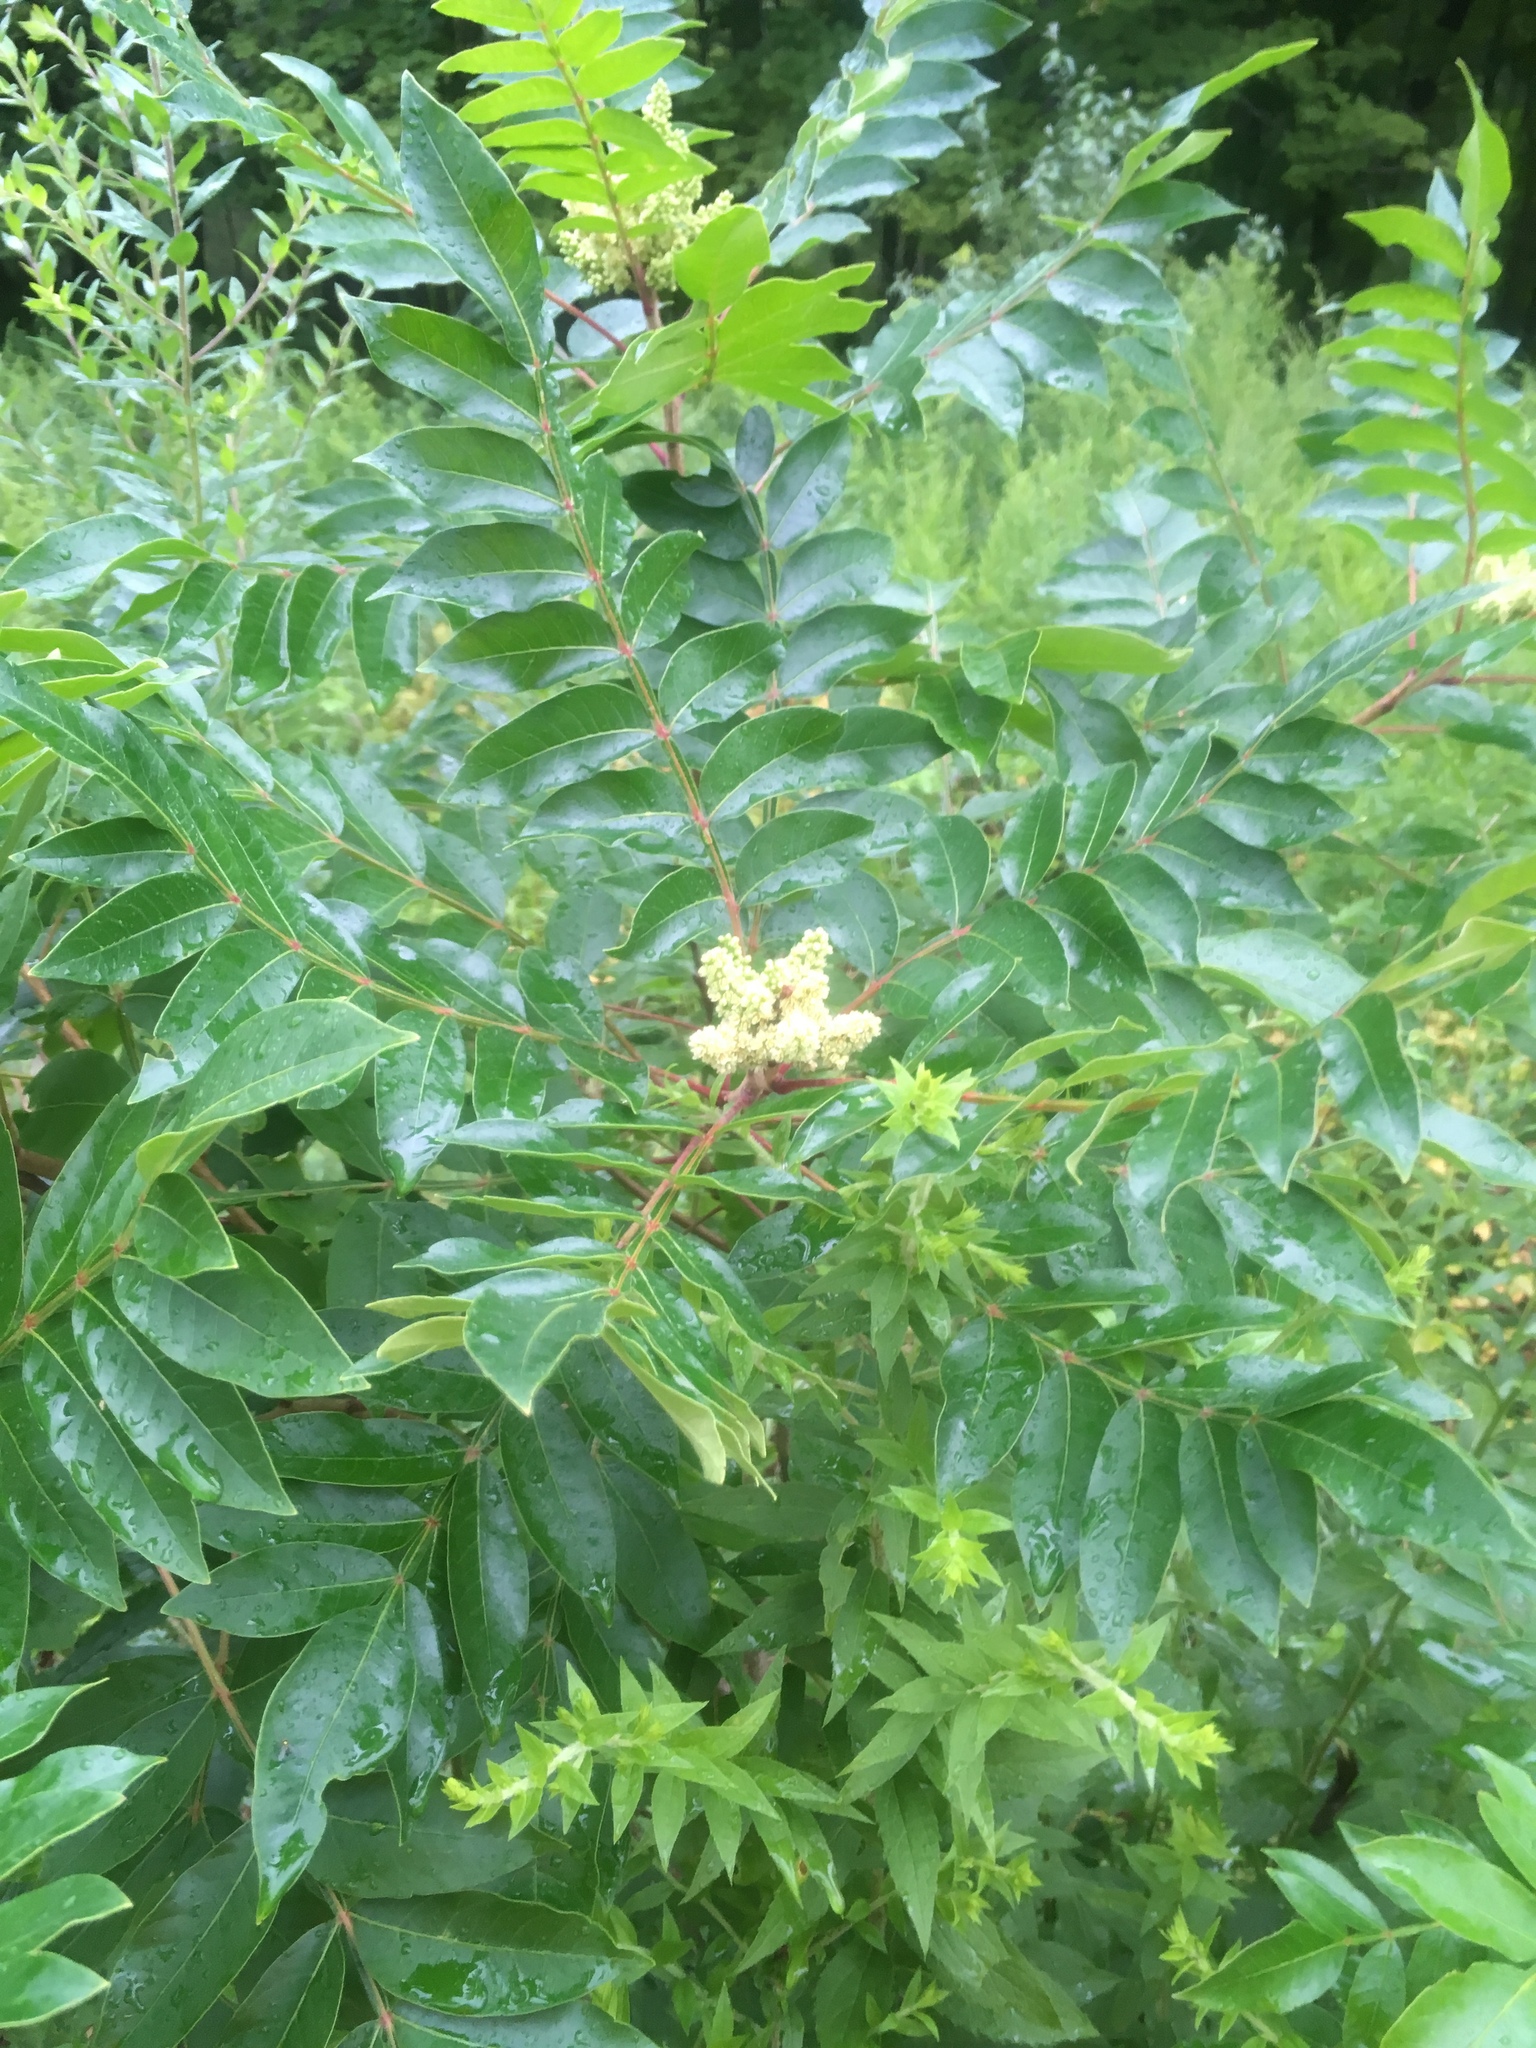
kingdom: Plantae
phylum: Tracheophyta
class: Magnoliopsida
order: Sapindales
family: Anacardiaceae
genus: Rhus
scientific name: Rhus copallina
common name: Shining sumac
